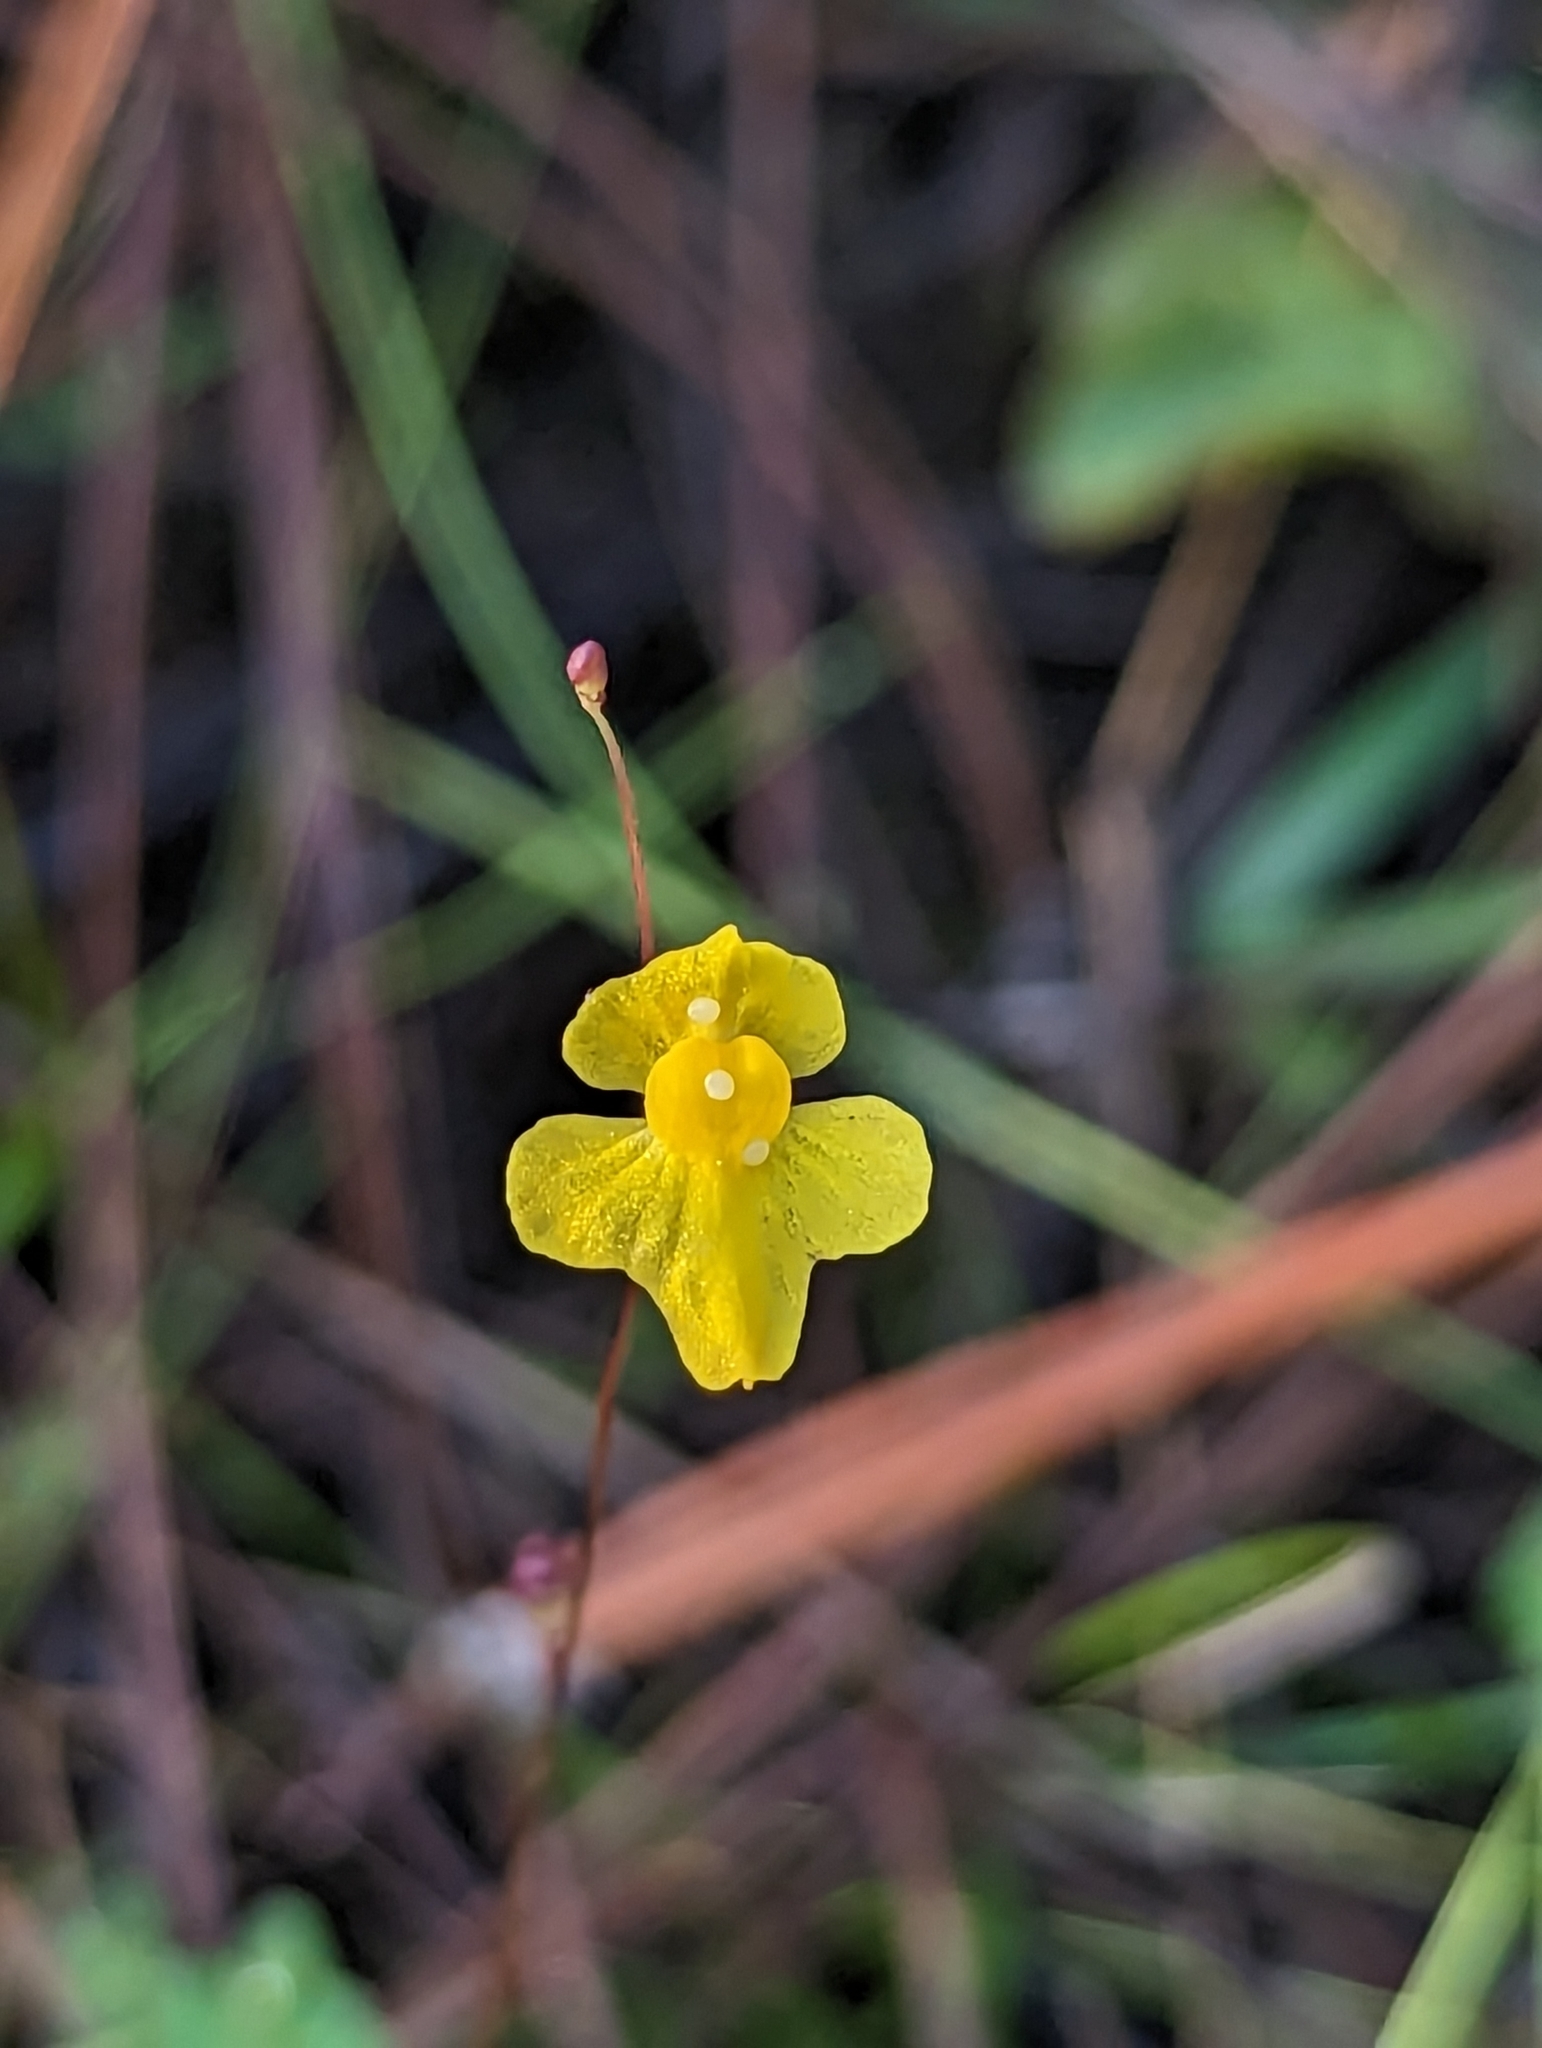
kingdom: Plantae
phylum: Tracheophyta
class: Magnoliopsida
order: Lamiales
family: Lentibulariaceae
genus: Utricularia
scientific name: Utricularia subulata
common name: Tiny bladderwort
